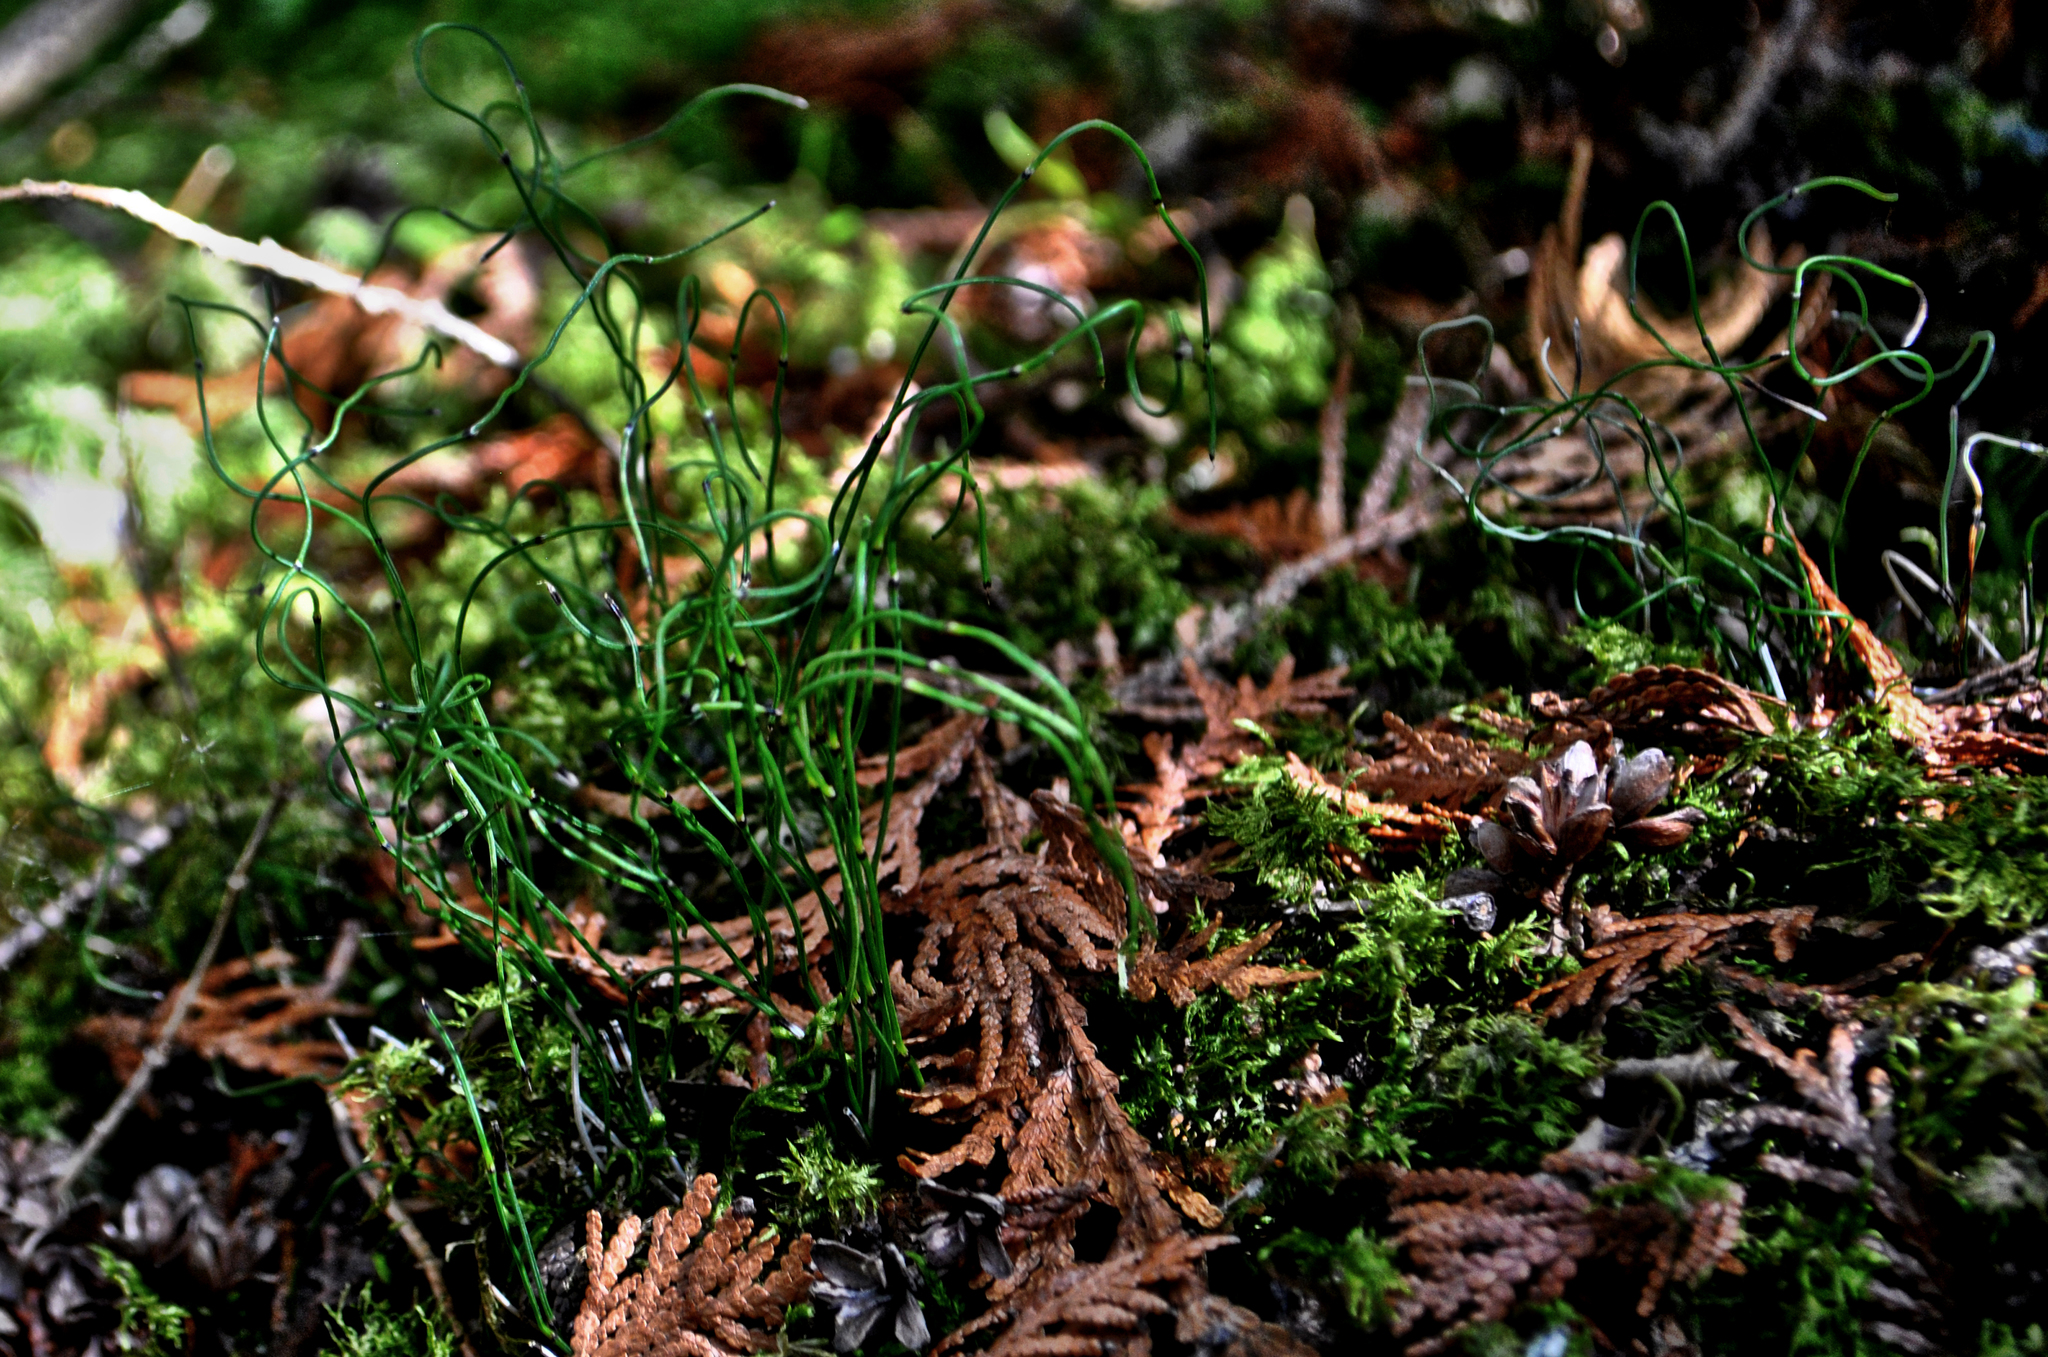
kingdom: Plantae
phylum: Tracheophyta
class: Polypodiopsida
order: Equisetales
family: Equisetaceae
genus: Equisetum
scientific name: Equisetum scirpoides
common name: Delicate horsetail
